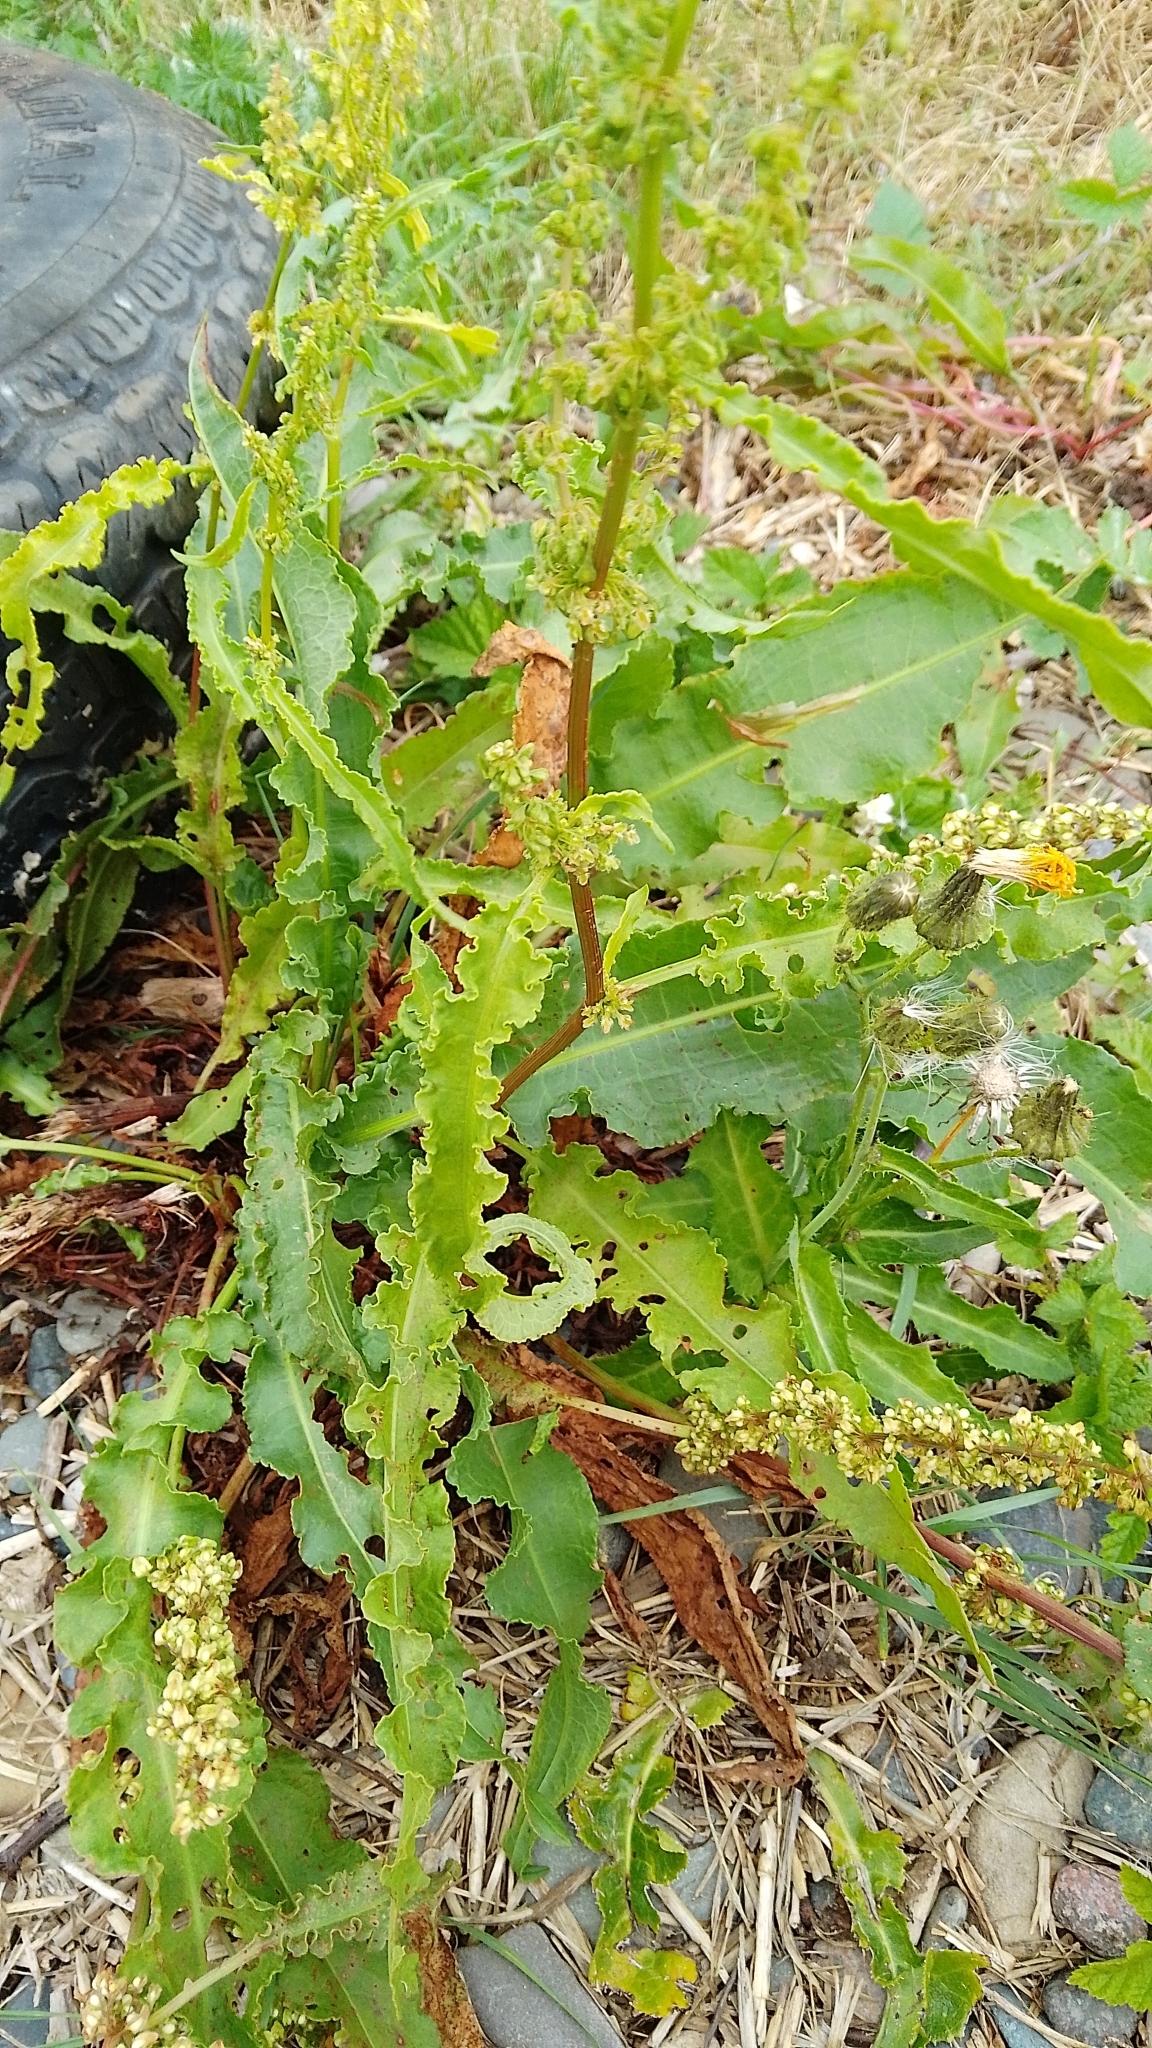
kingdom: Plantae
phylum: Tracheophyta
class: Magnoliopsida
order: Caryophyllales
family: Polygonaceae
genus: Rumex
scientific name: Rumex crispus
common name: Curled dock
